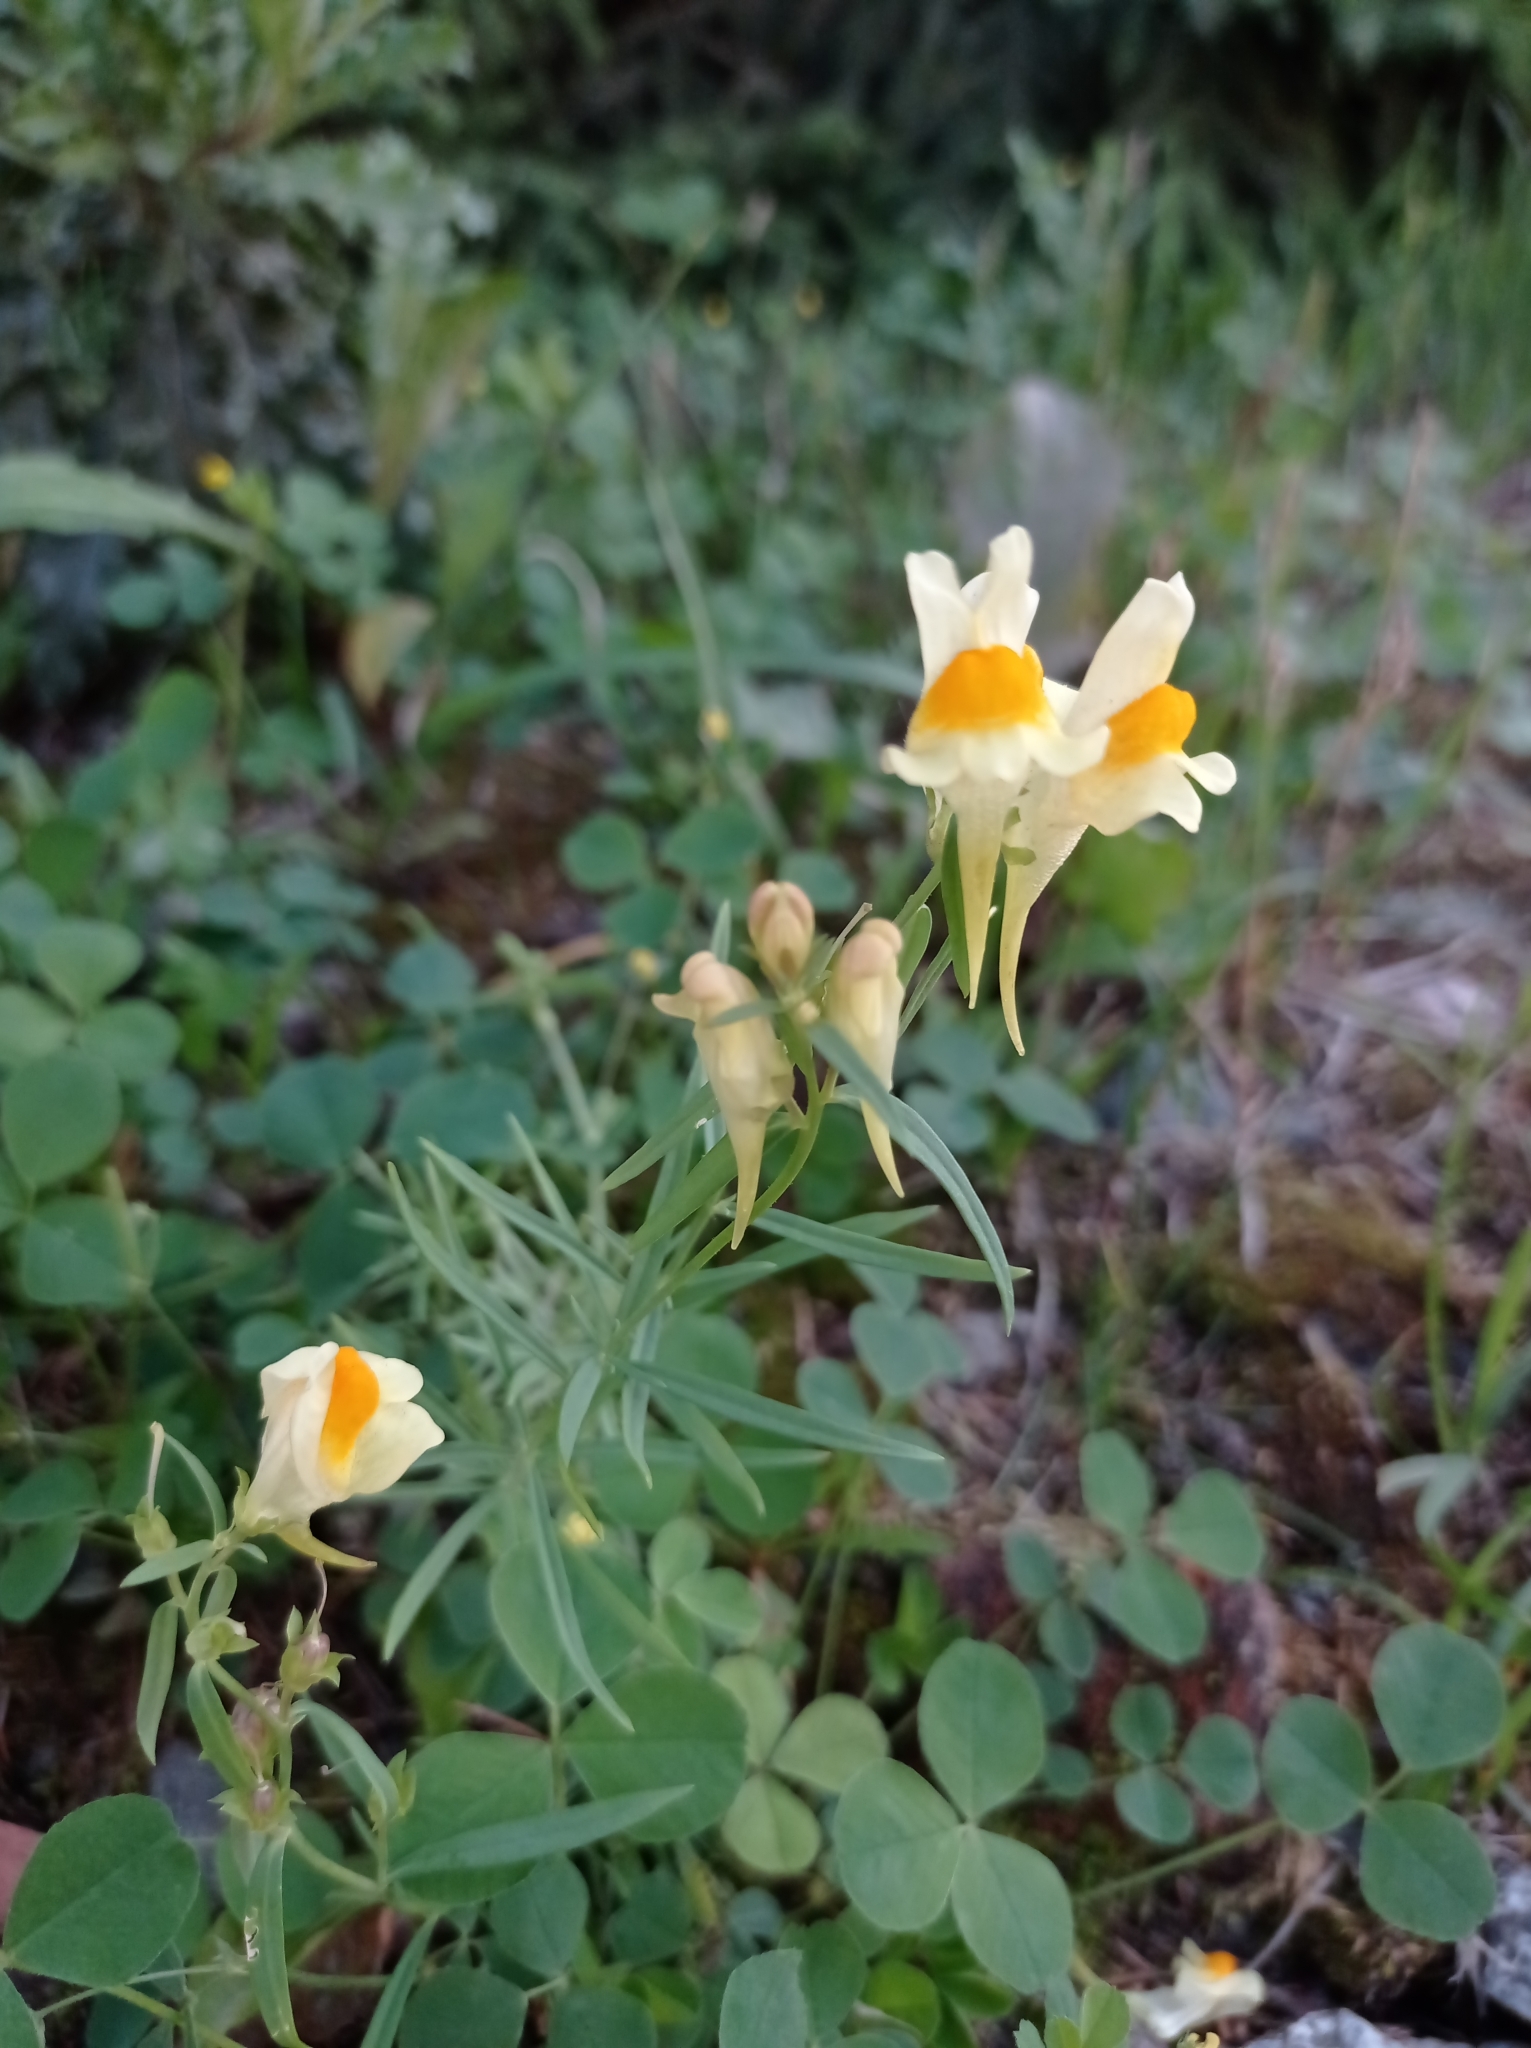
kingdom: Plantae
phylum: Tracheophyta
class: Magnoliopsida
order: Lamiales
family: Plantaginaceae
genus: Linaria
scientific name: Linaria vulgaris
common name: Butter and eggs
